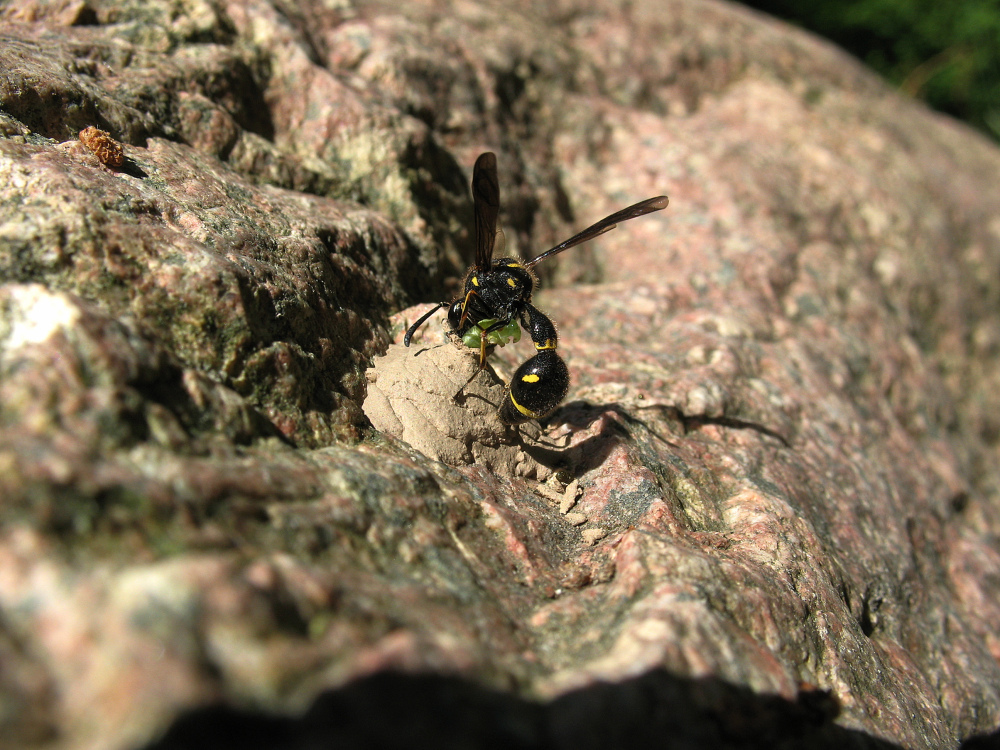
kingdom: Animalia
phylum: Arthropoda
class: Insecta
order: Hymenoptera
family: Vespidae
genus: Eumenes
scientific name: Eumenes coronatus
